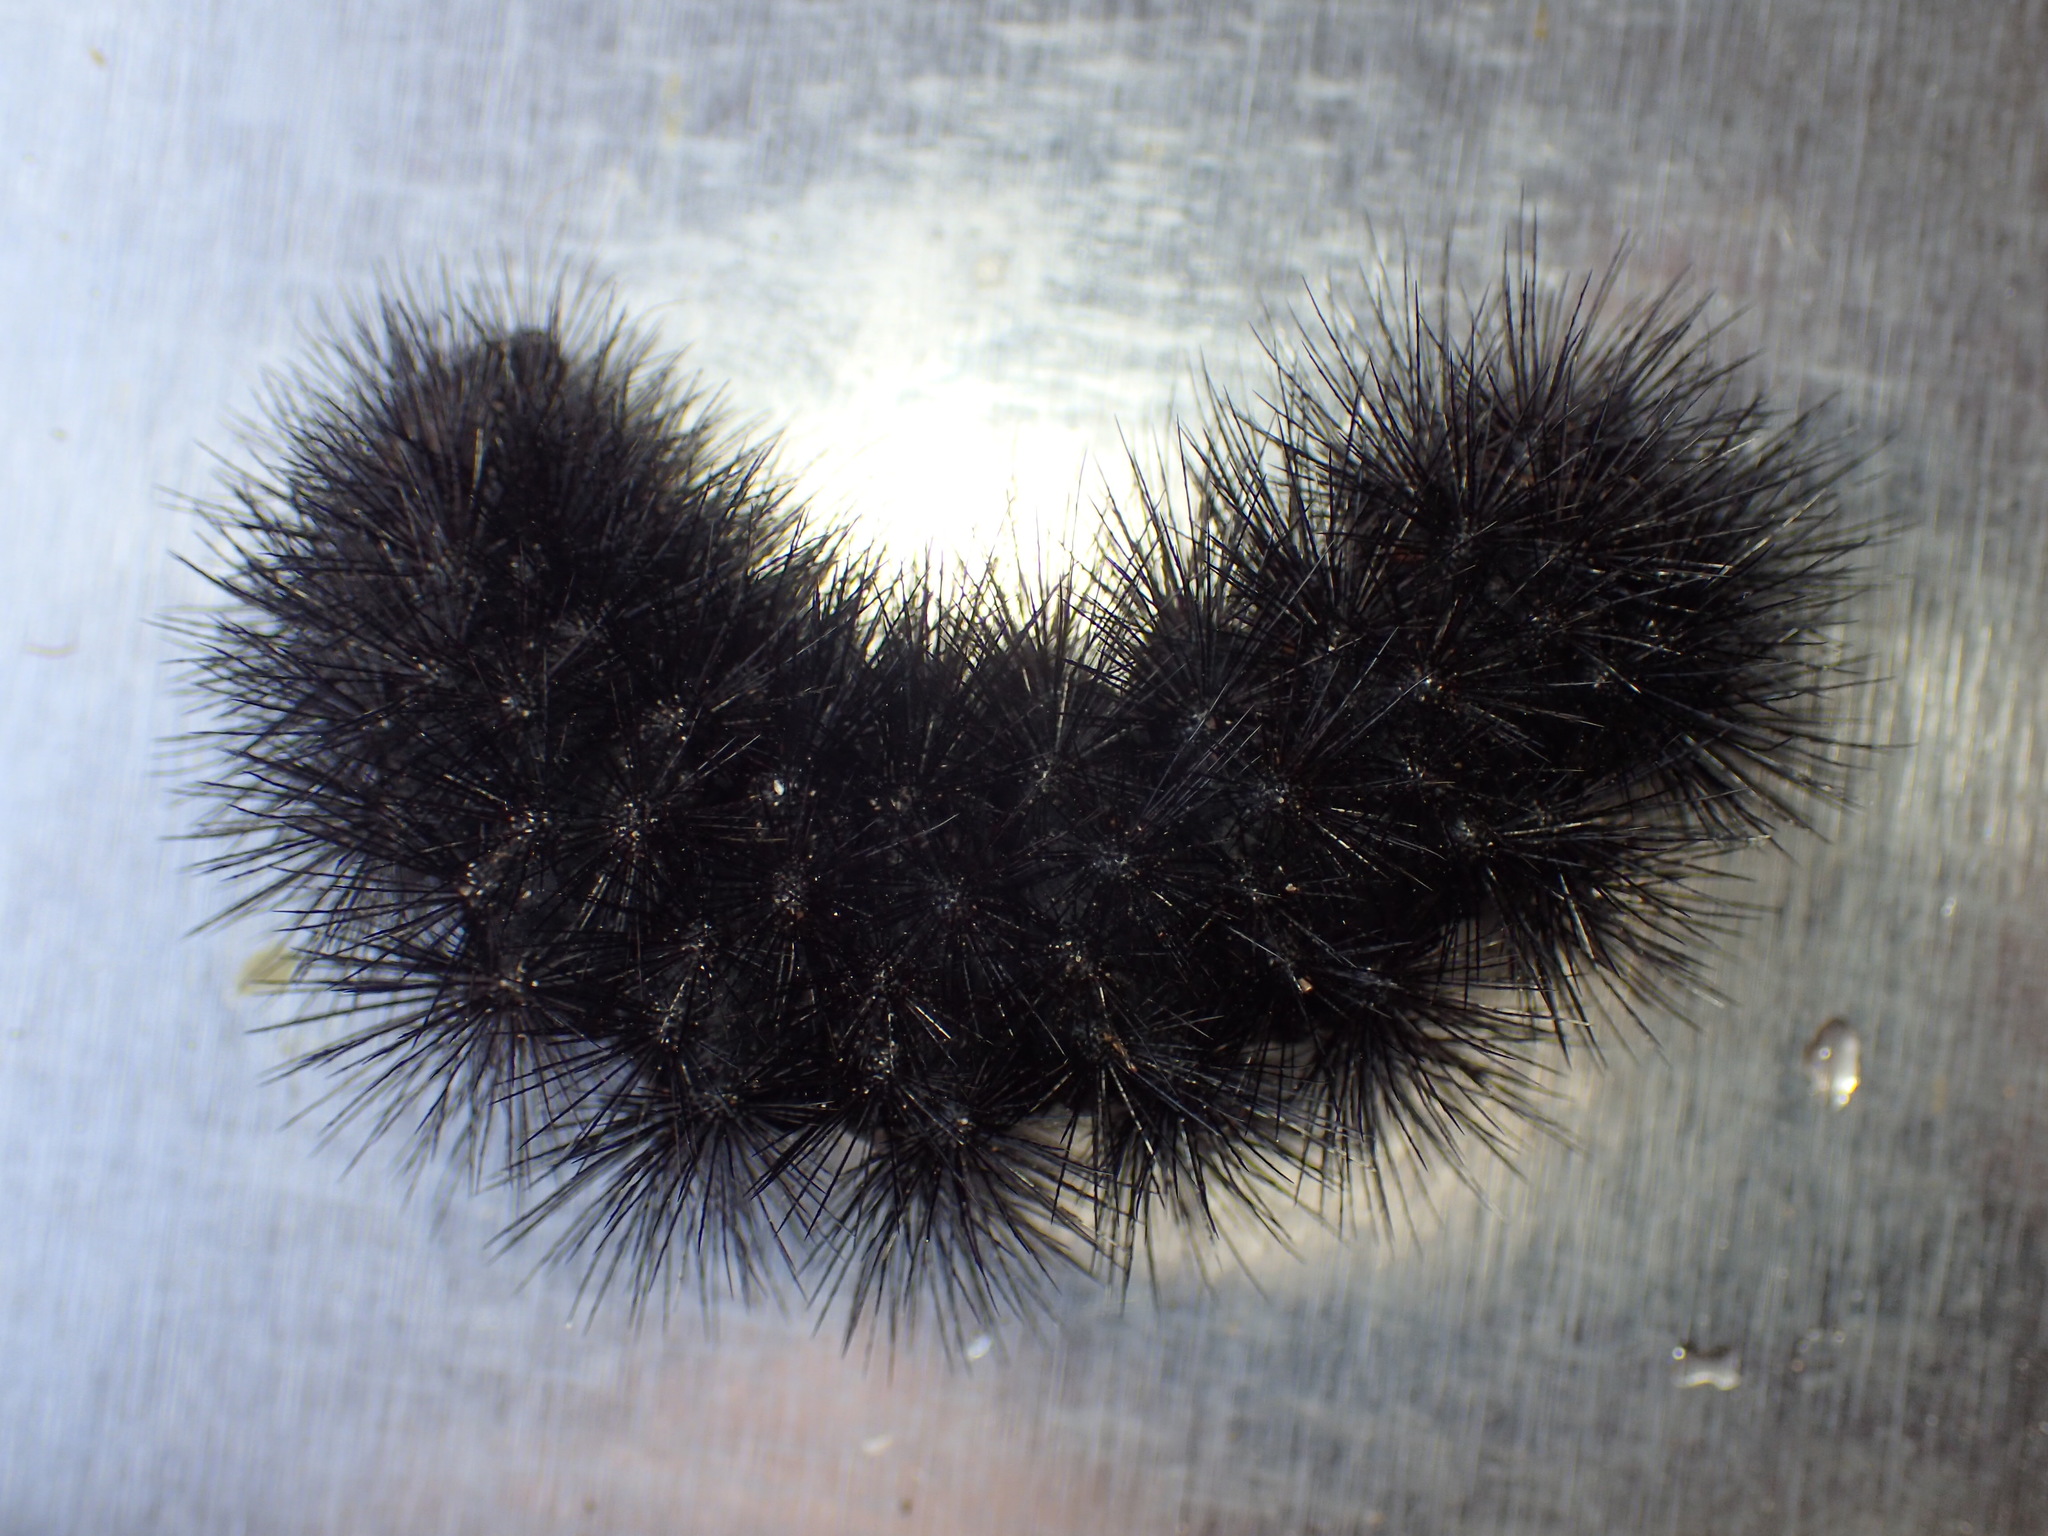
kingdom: Animalia
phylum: Arthropoda
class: Insecta
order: Lepidoptera
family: Erebidae
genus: Hypercompe
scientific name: Hypercompe scribonia
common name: Giant leopard moth
